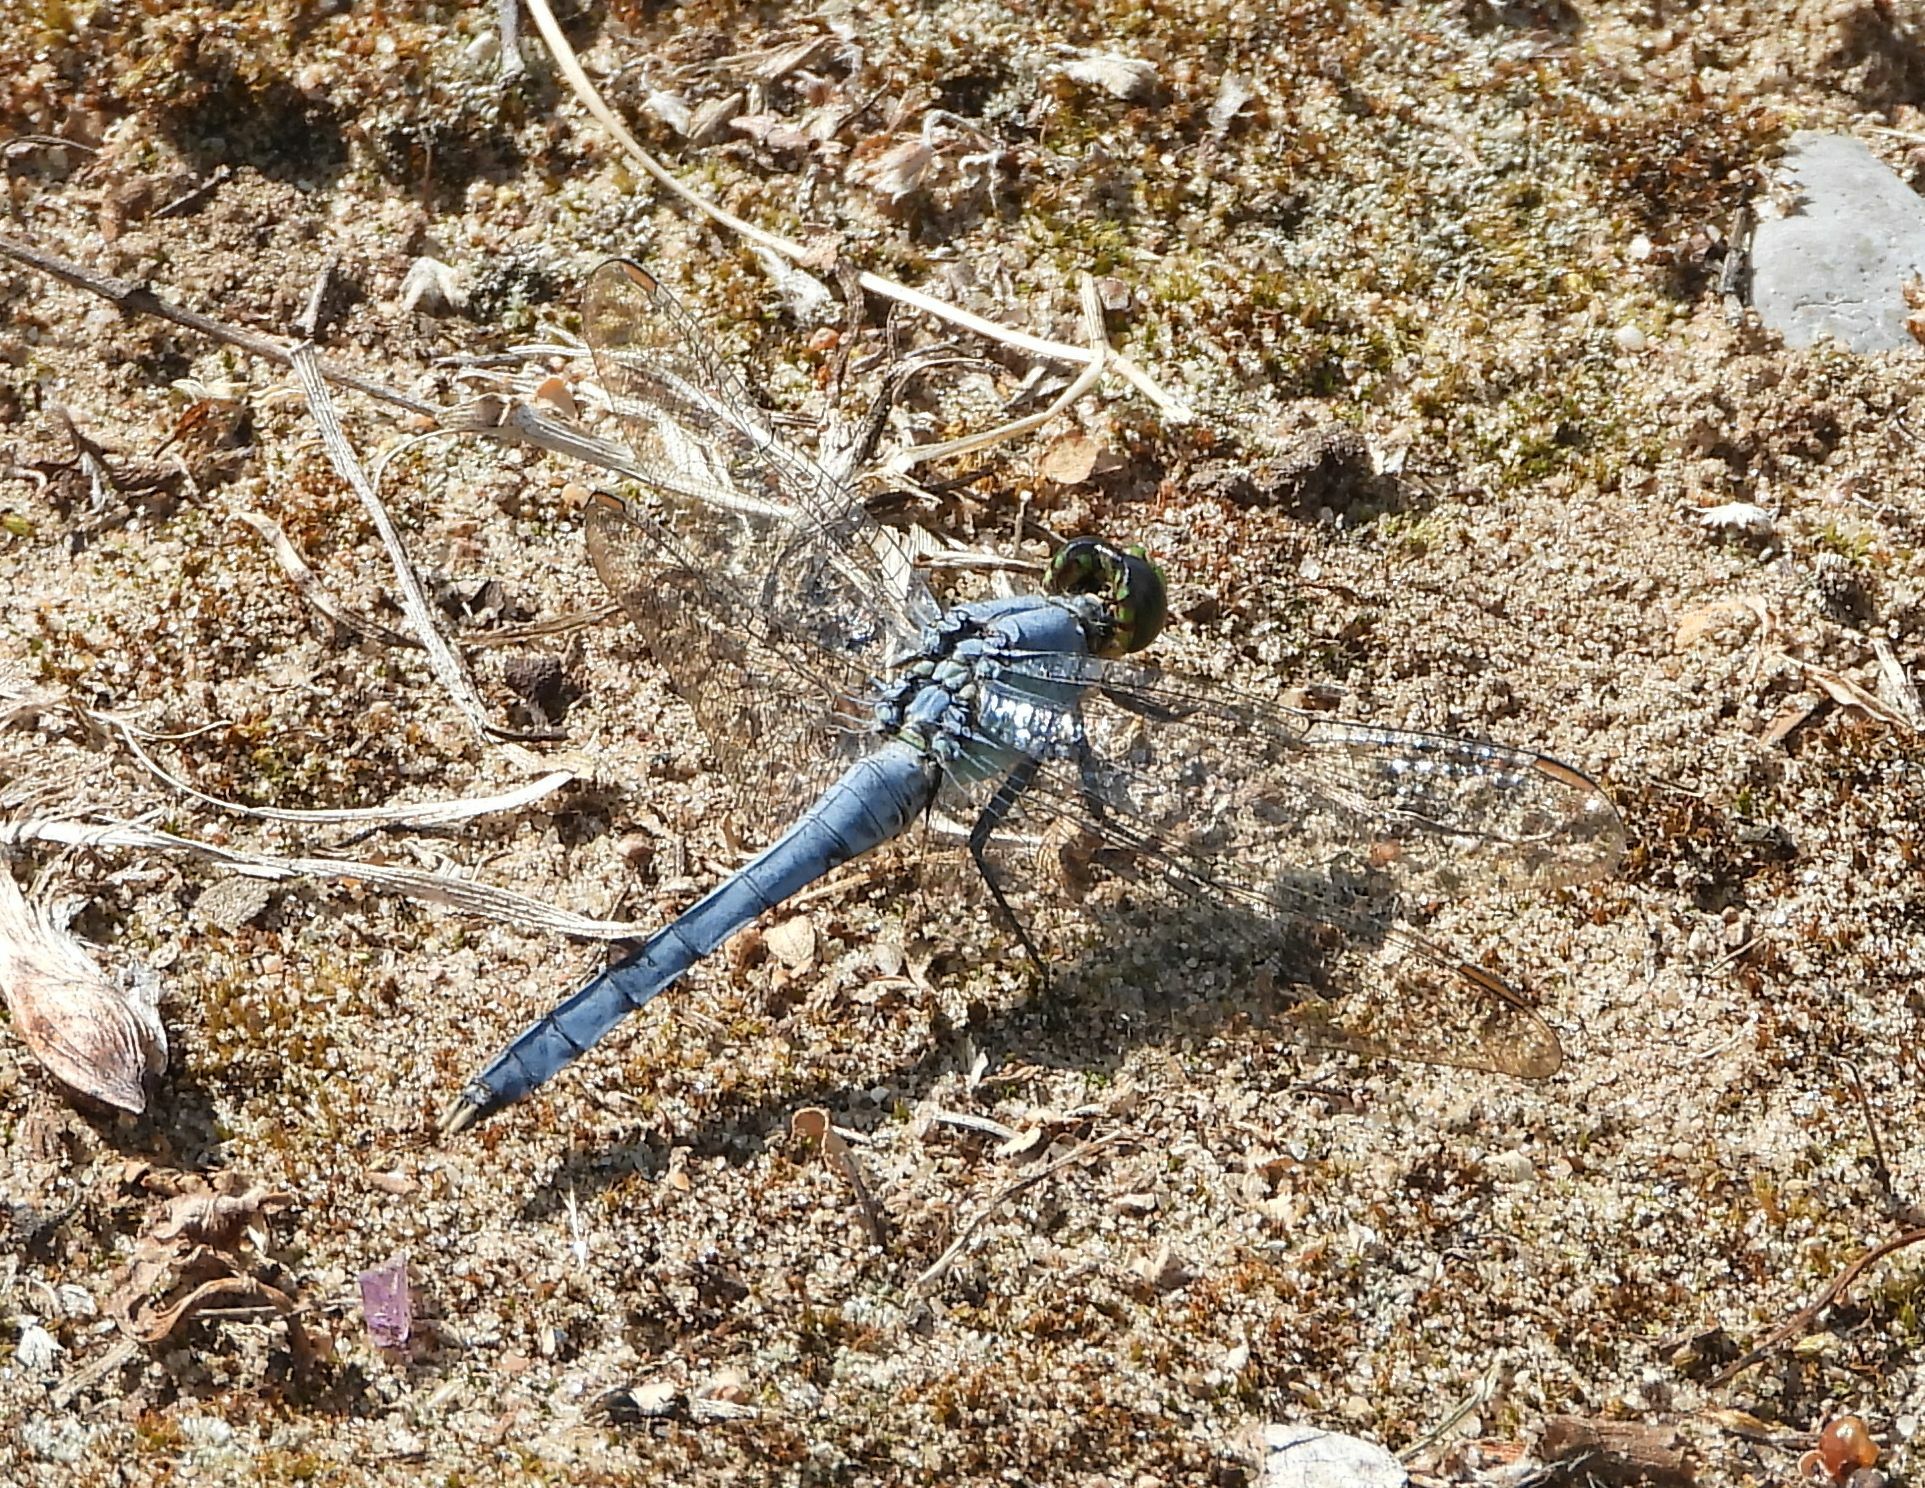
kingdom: Animalia
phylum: Arthropoda
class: Insecta
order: Odonata
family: Libellulidae
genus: Erythemis
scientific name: Erythemis simplicicollis
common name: Eastern pondhawk
